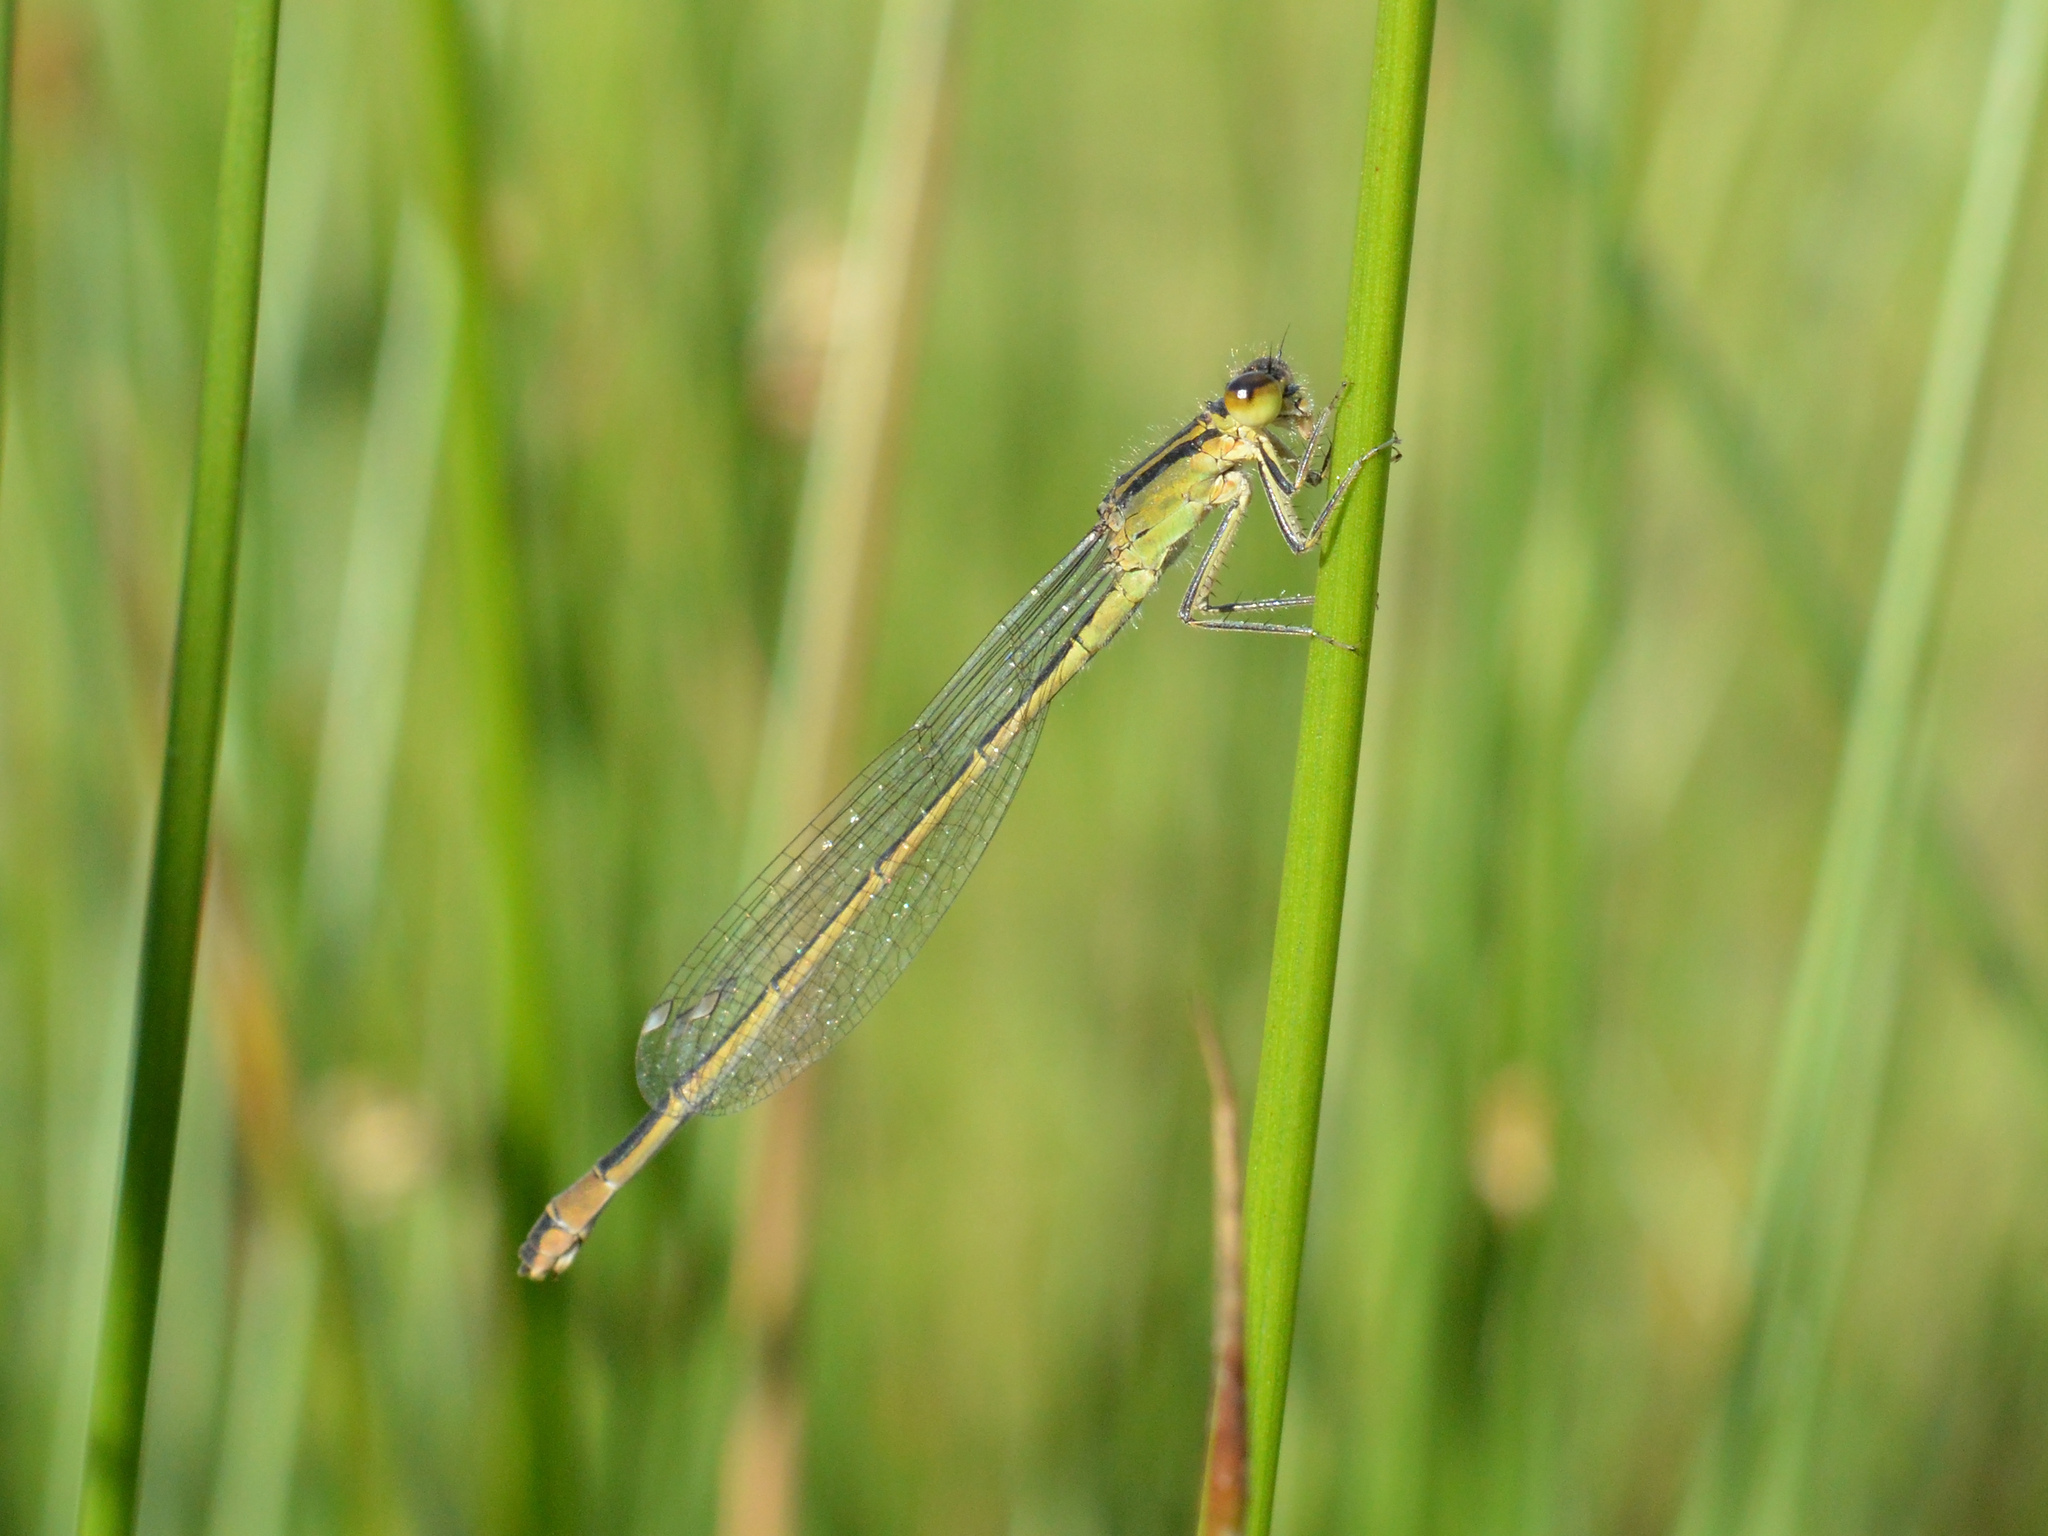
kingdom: Animalia
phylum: Arthropoda
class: Insecta
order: Odonata
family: Coenagrionidae
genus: Ischnura
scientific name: Ischnura elegans
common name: Blue-tailed damselfly
